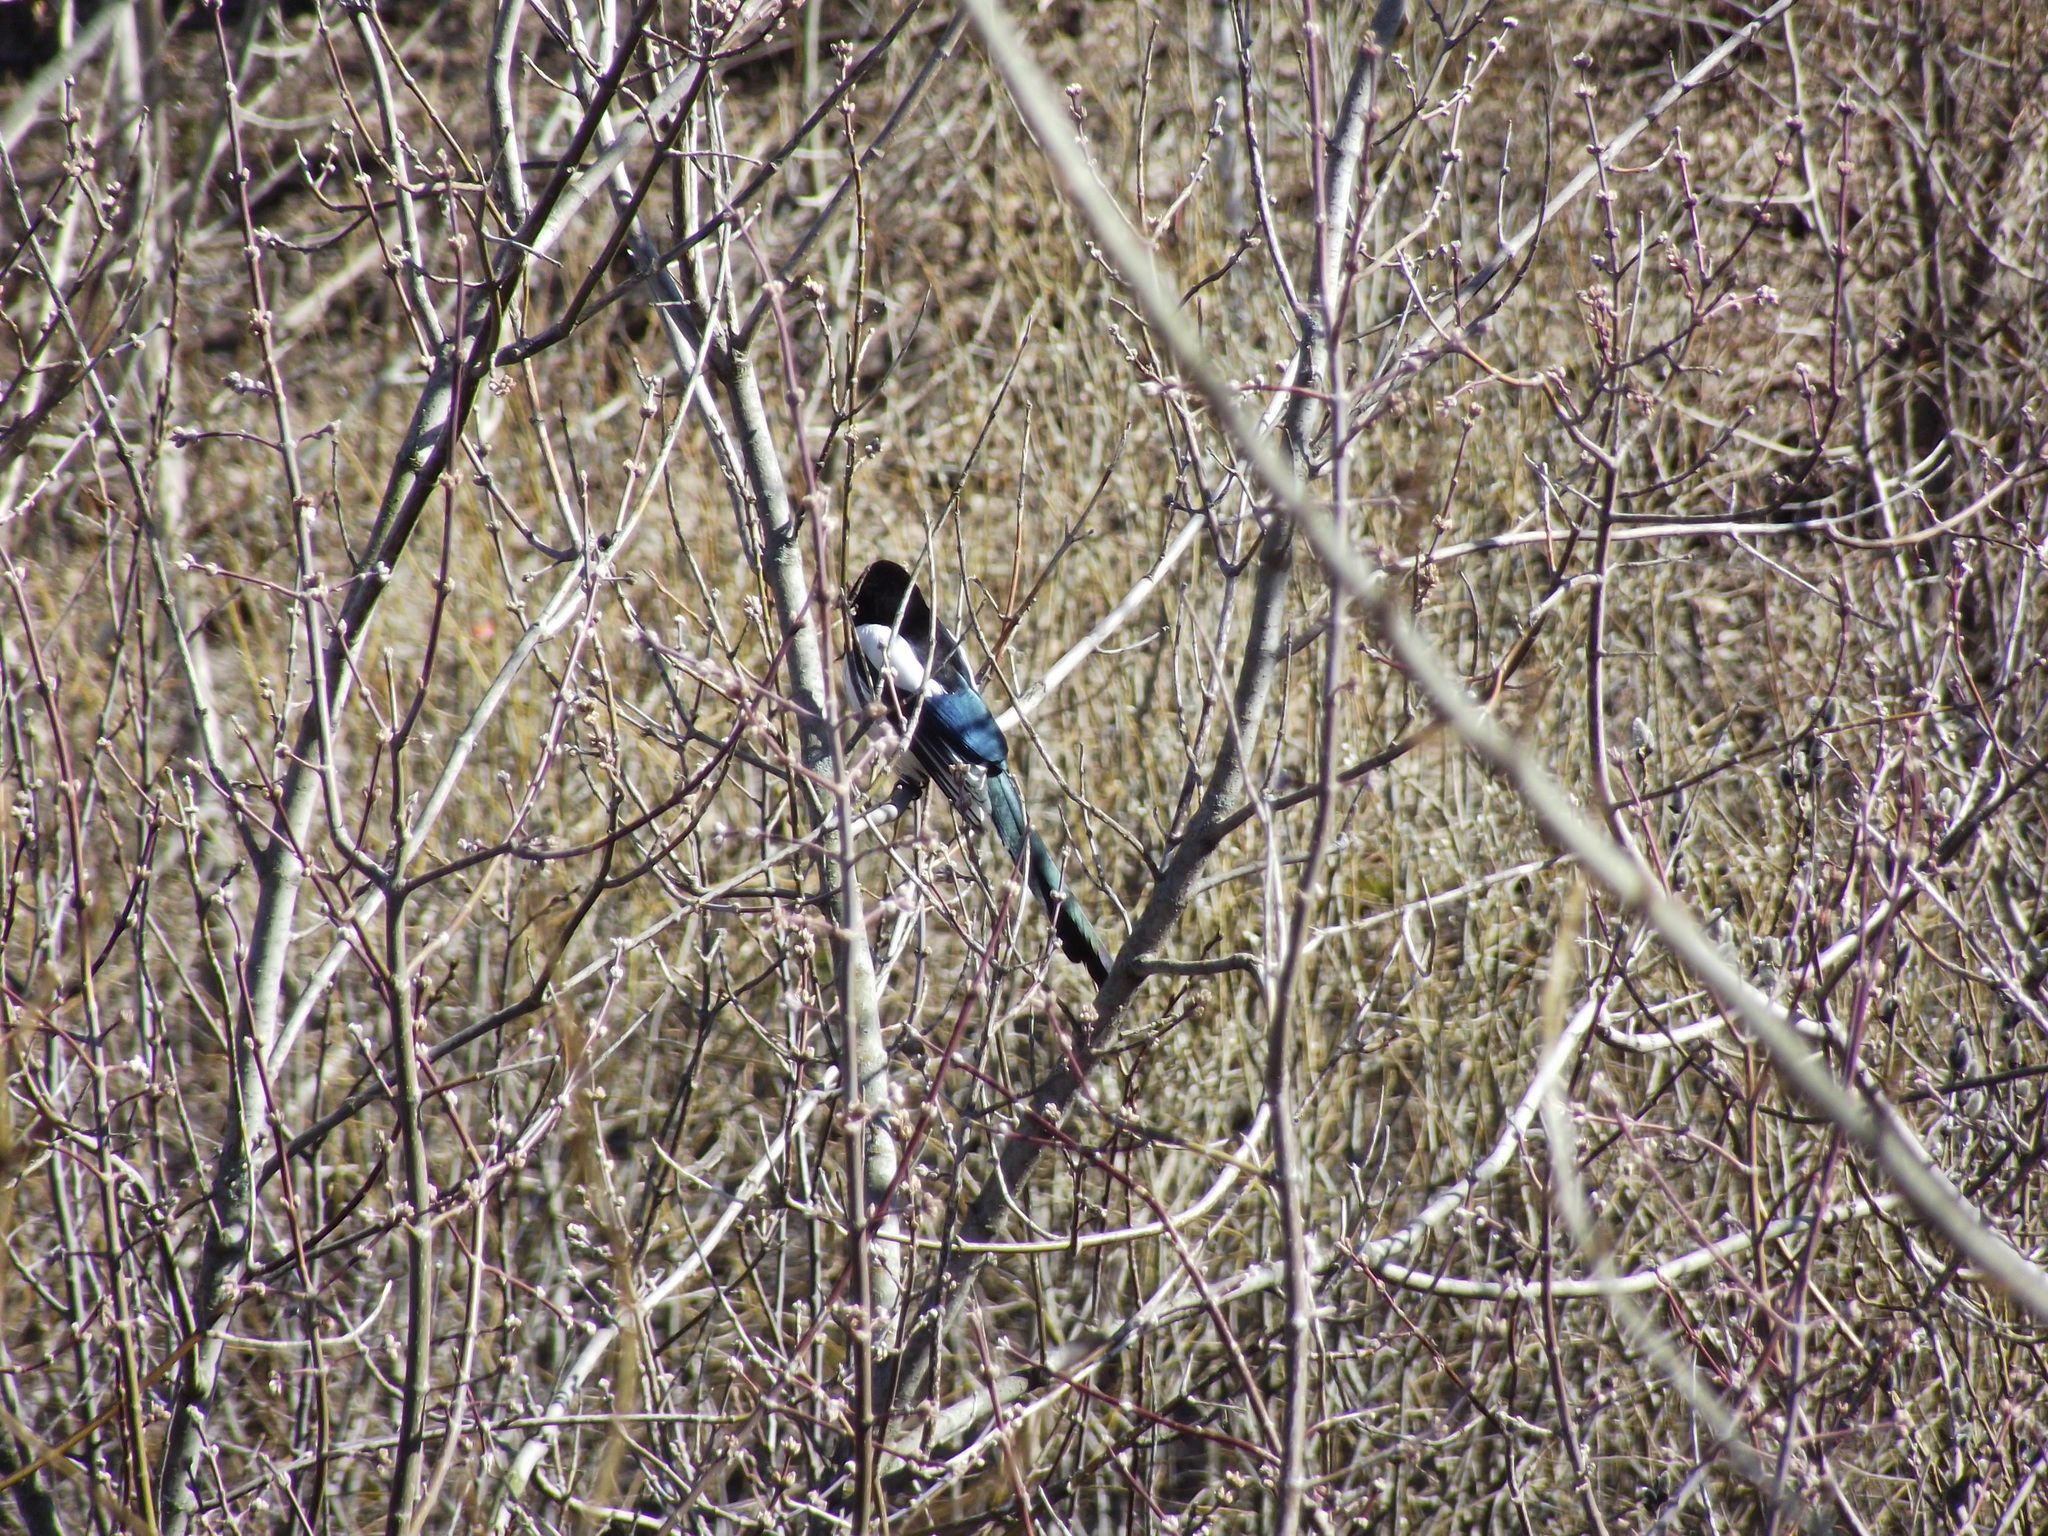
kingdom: Animalia
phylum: Chordata
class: Aves
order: Passeriformes
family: Corvidae
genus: Pica
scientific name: Pica pica
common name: Eurasian magpie
